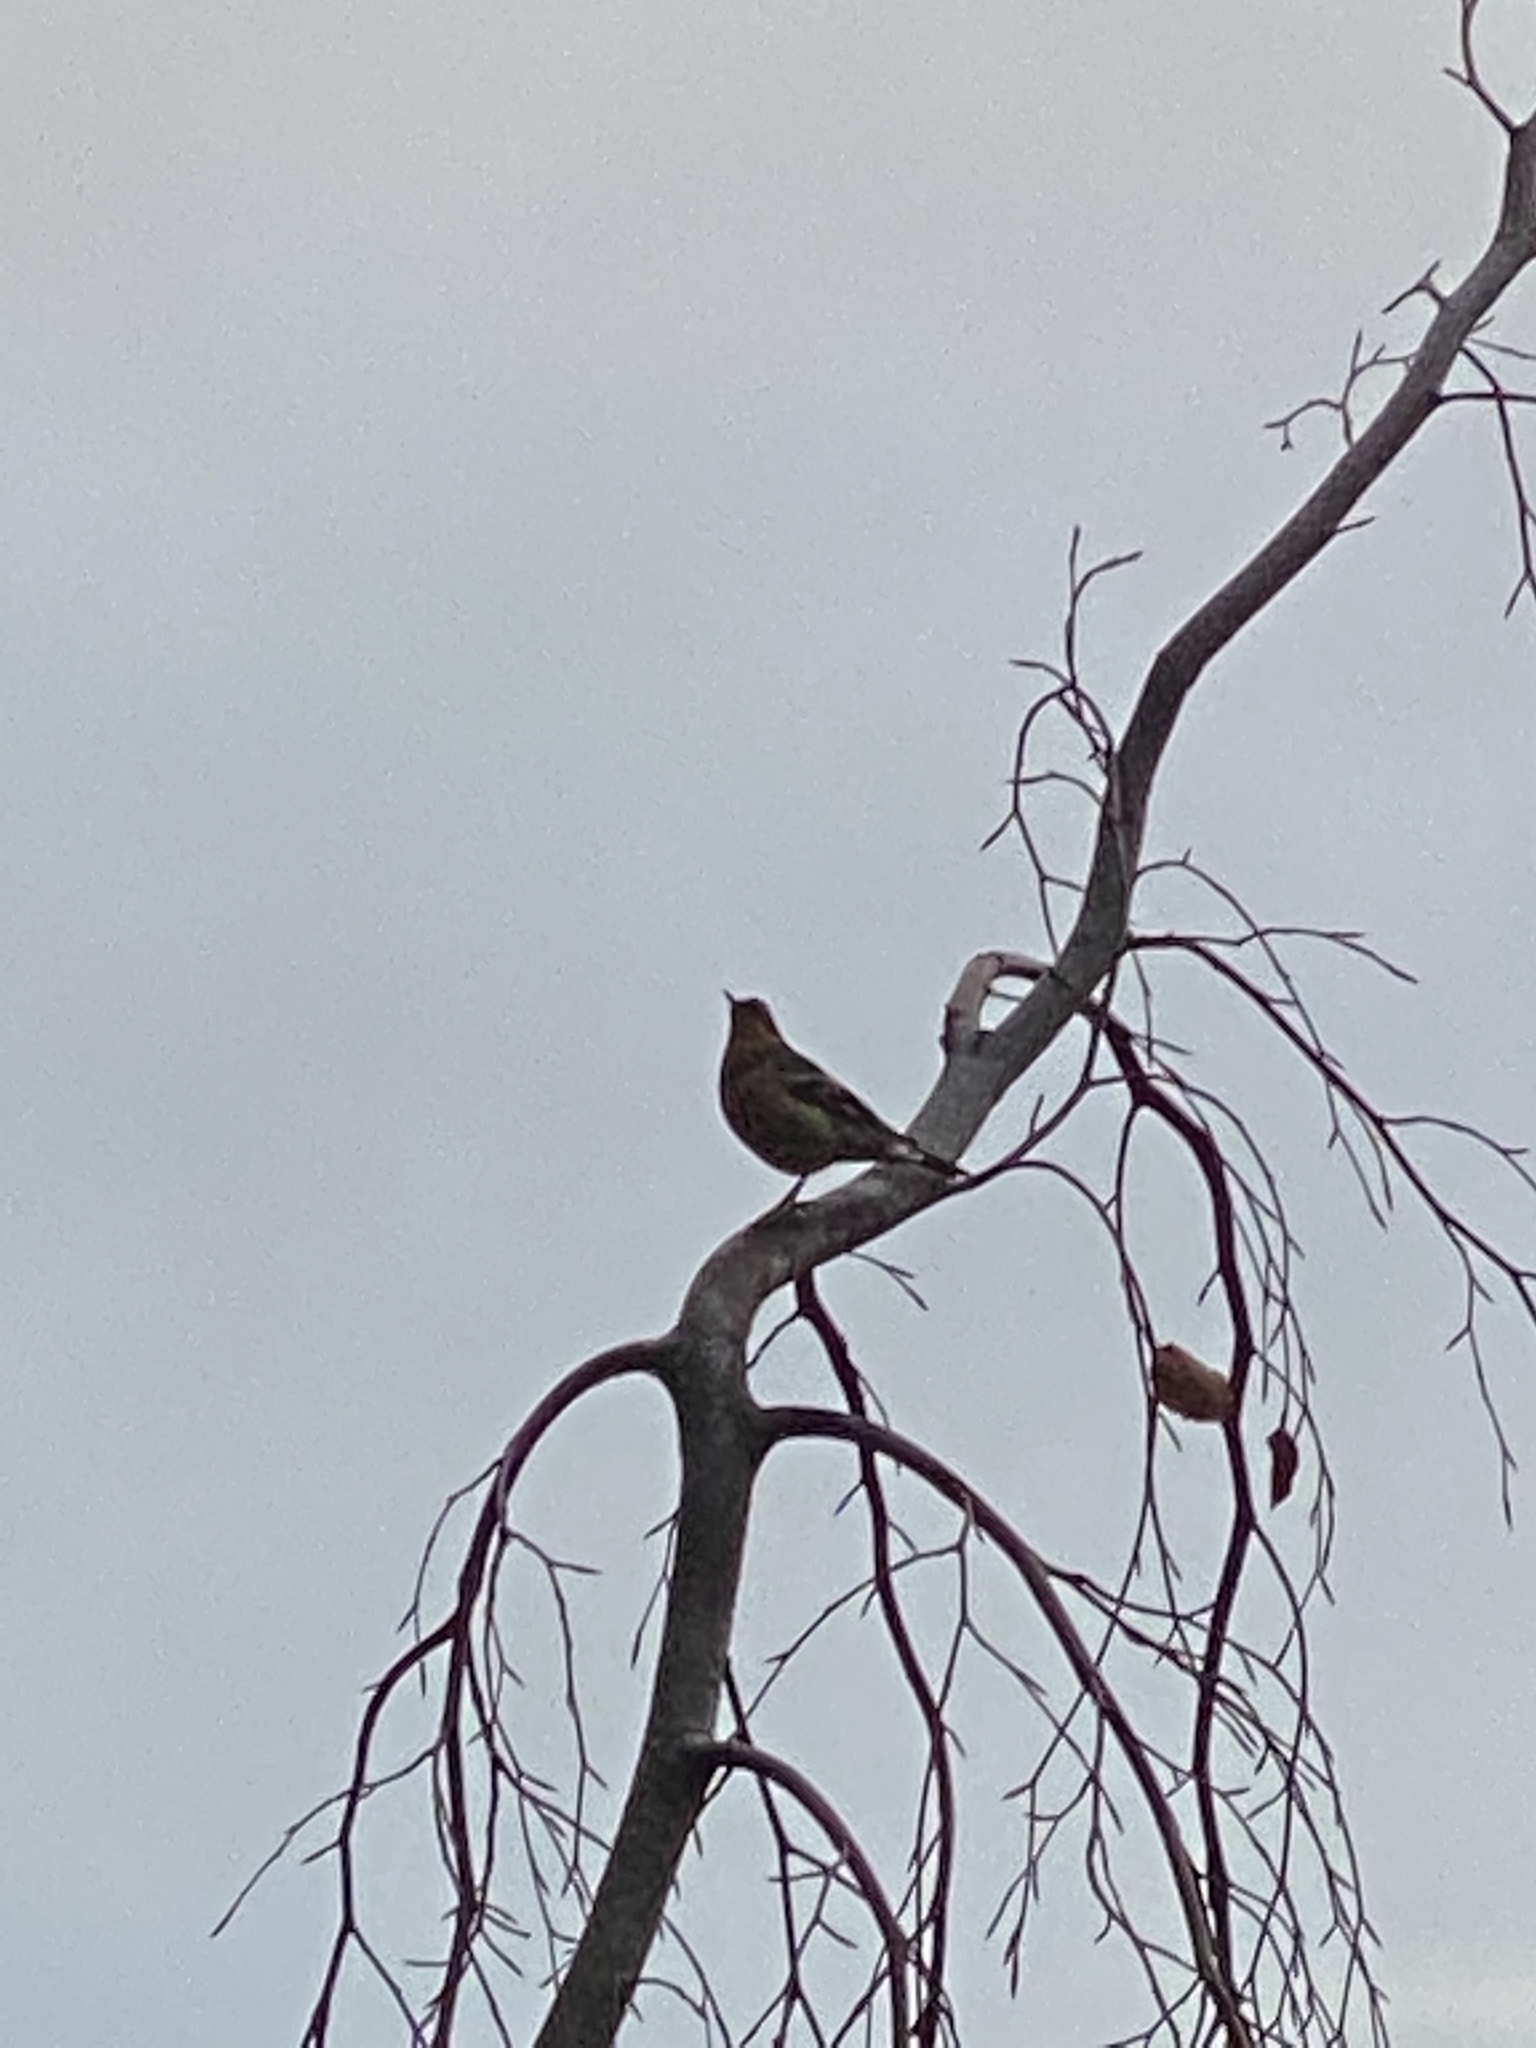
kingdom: Animalia
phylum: Chordata
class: Aves
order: Passeriformes
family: Turdidae
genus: Ixoreus
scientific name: Ixoreus naevius
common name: Varied thrush
